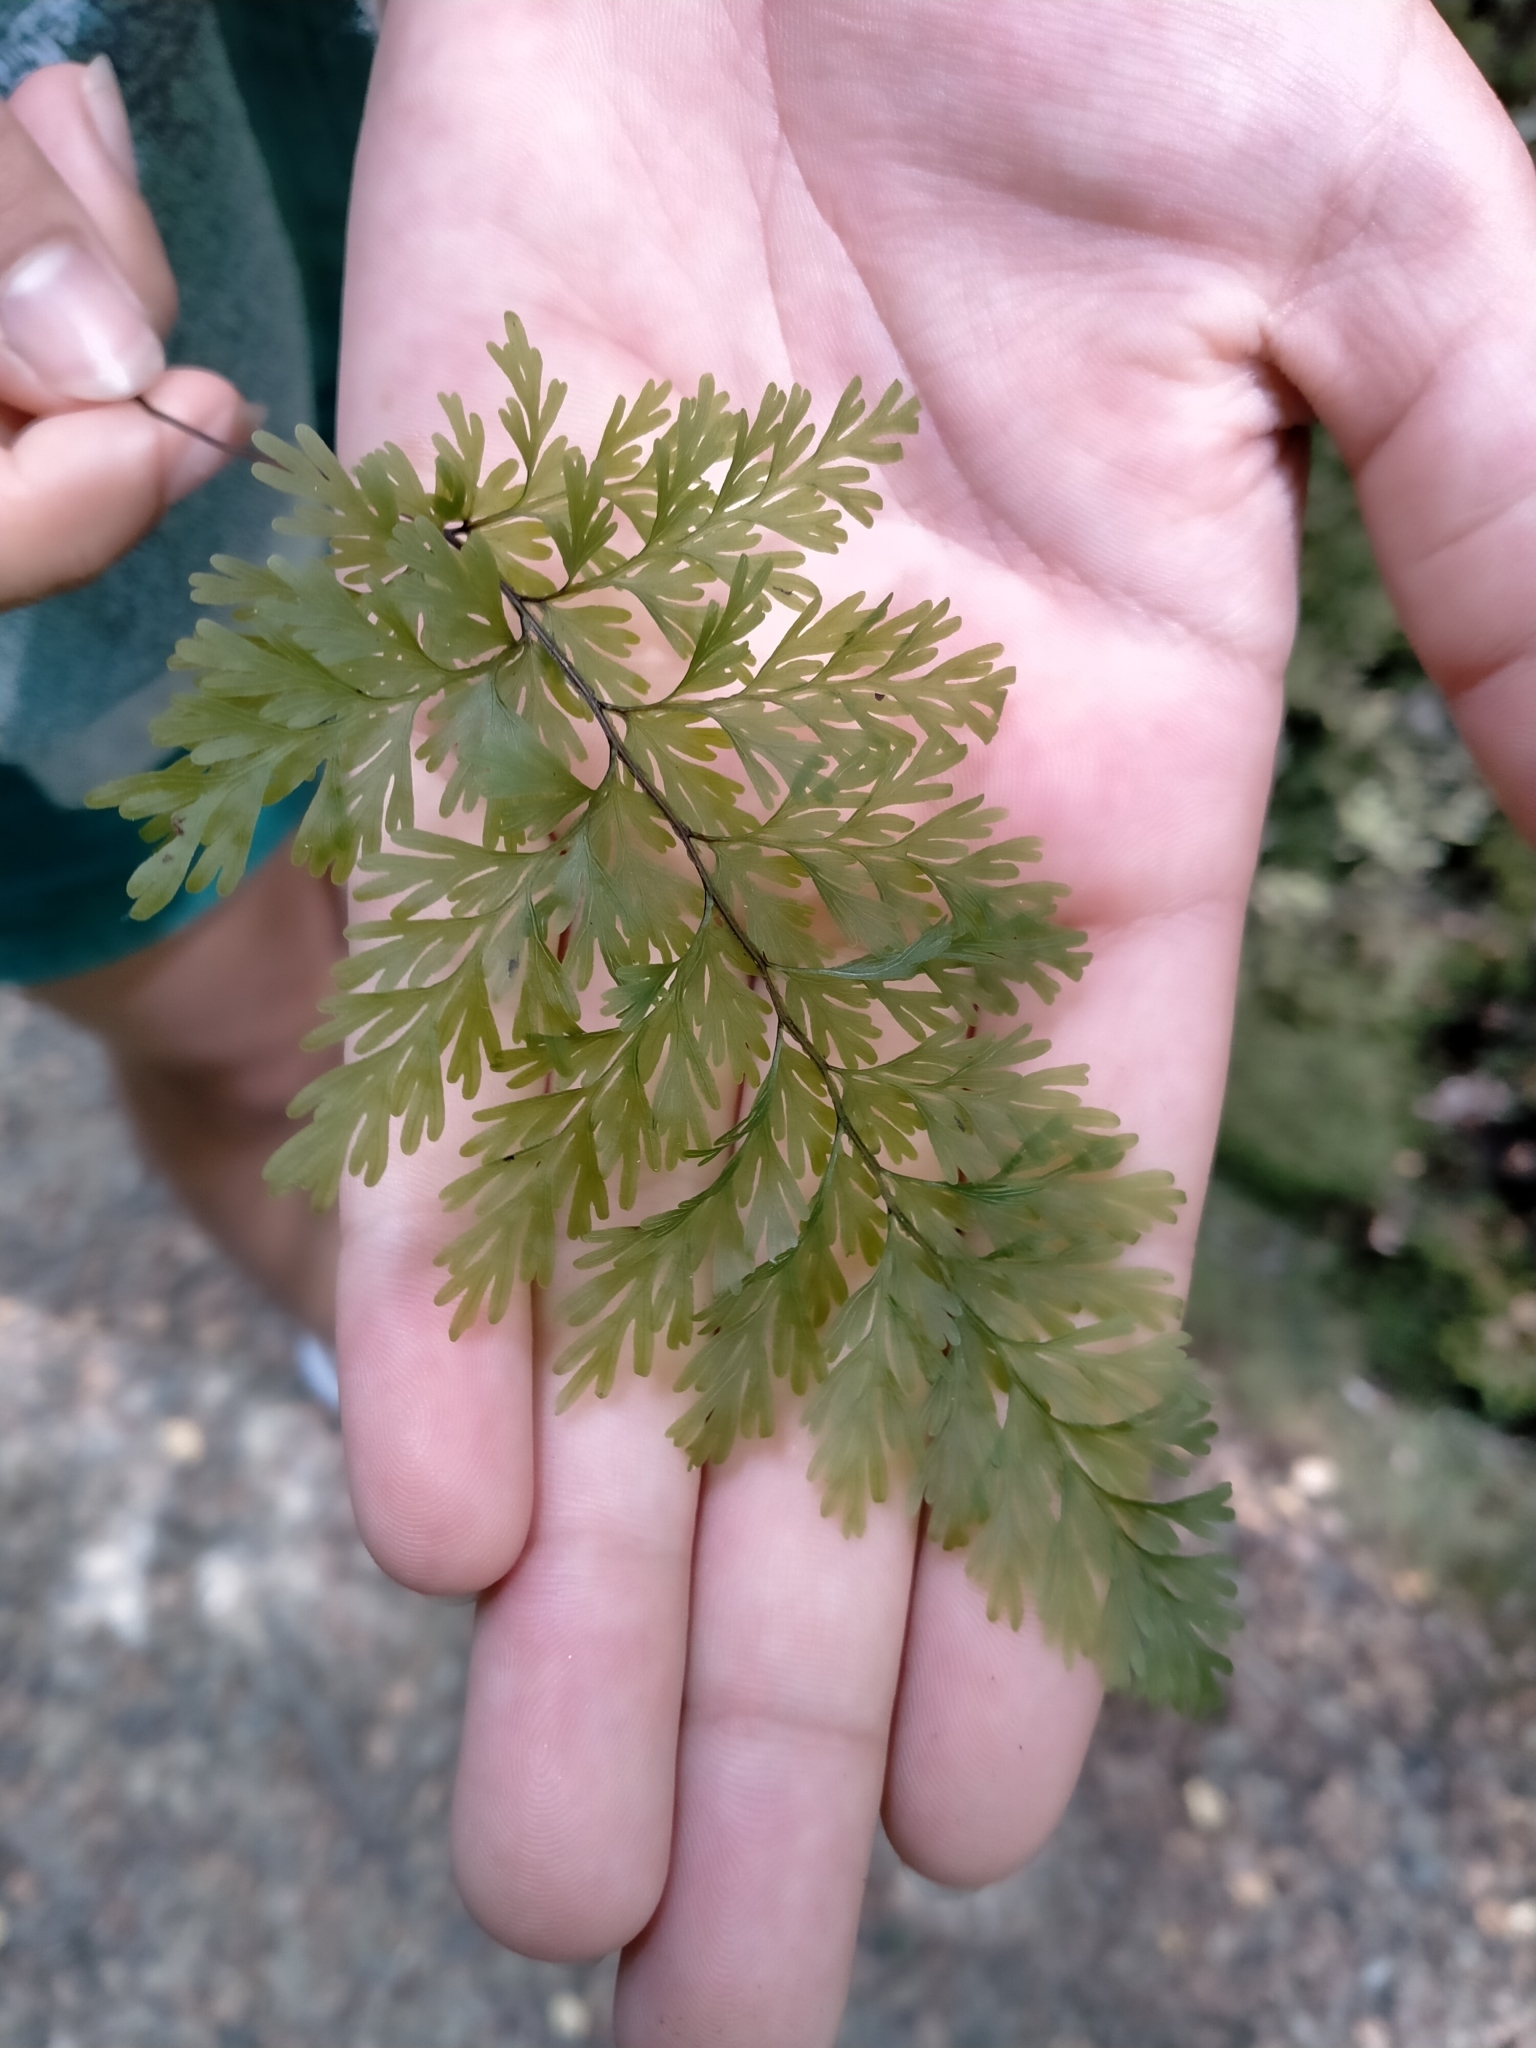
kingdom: Plantae
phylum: Tracheophyta
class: Polypodiopsida
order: Hymenophyllales
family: Hymenophyllaceae
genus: Hymenophyllum
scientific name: Hymenophyllum demissum
